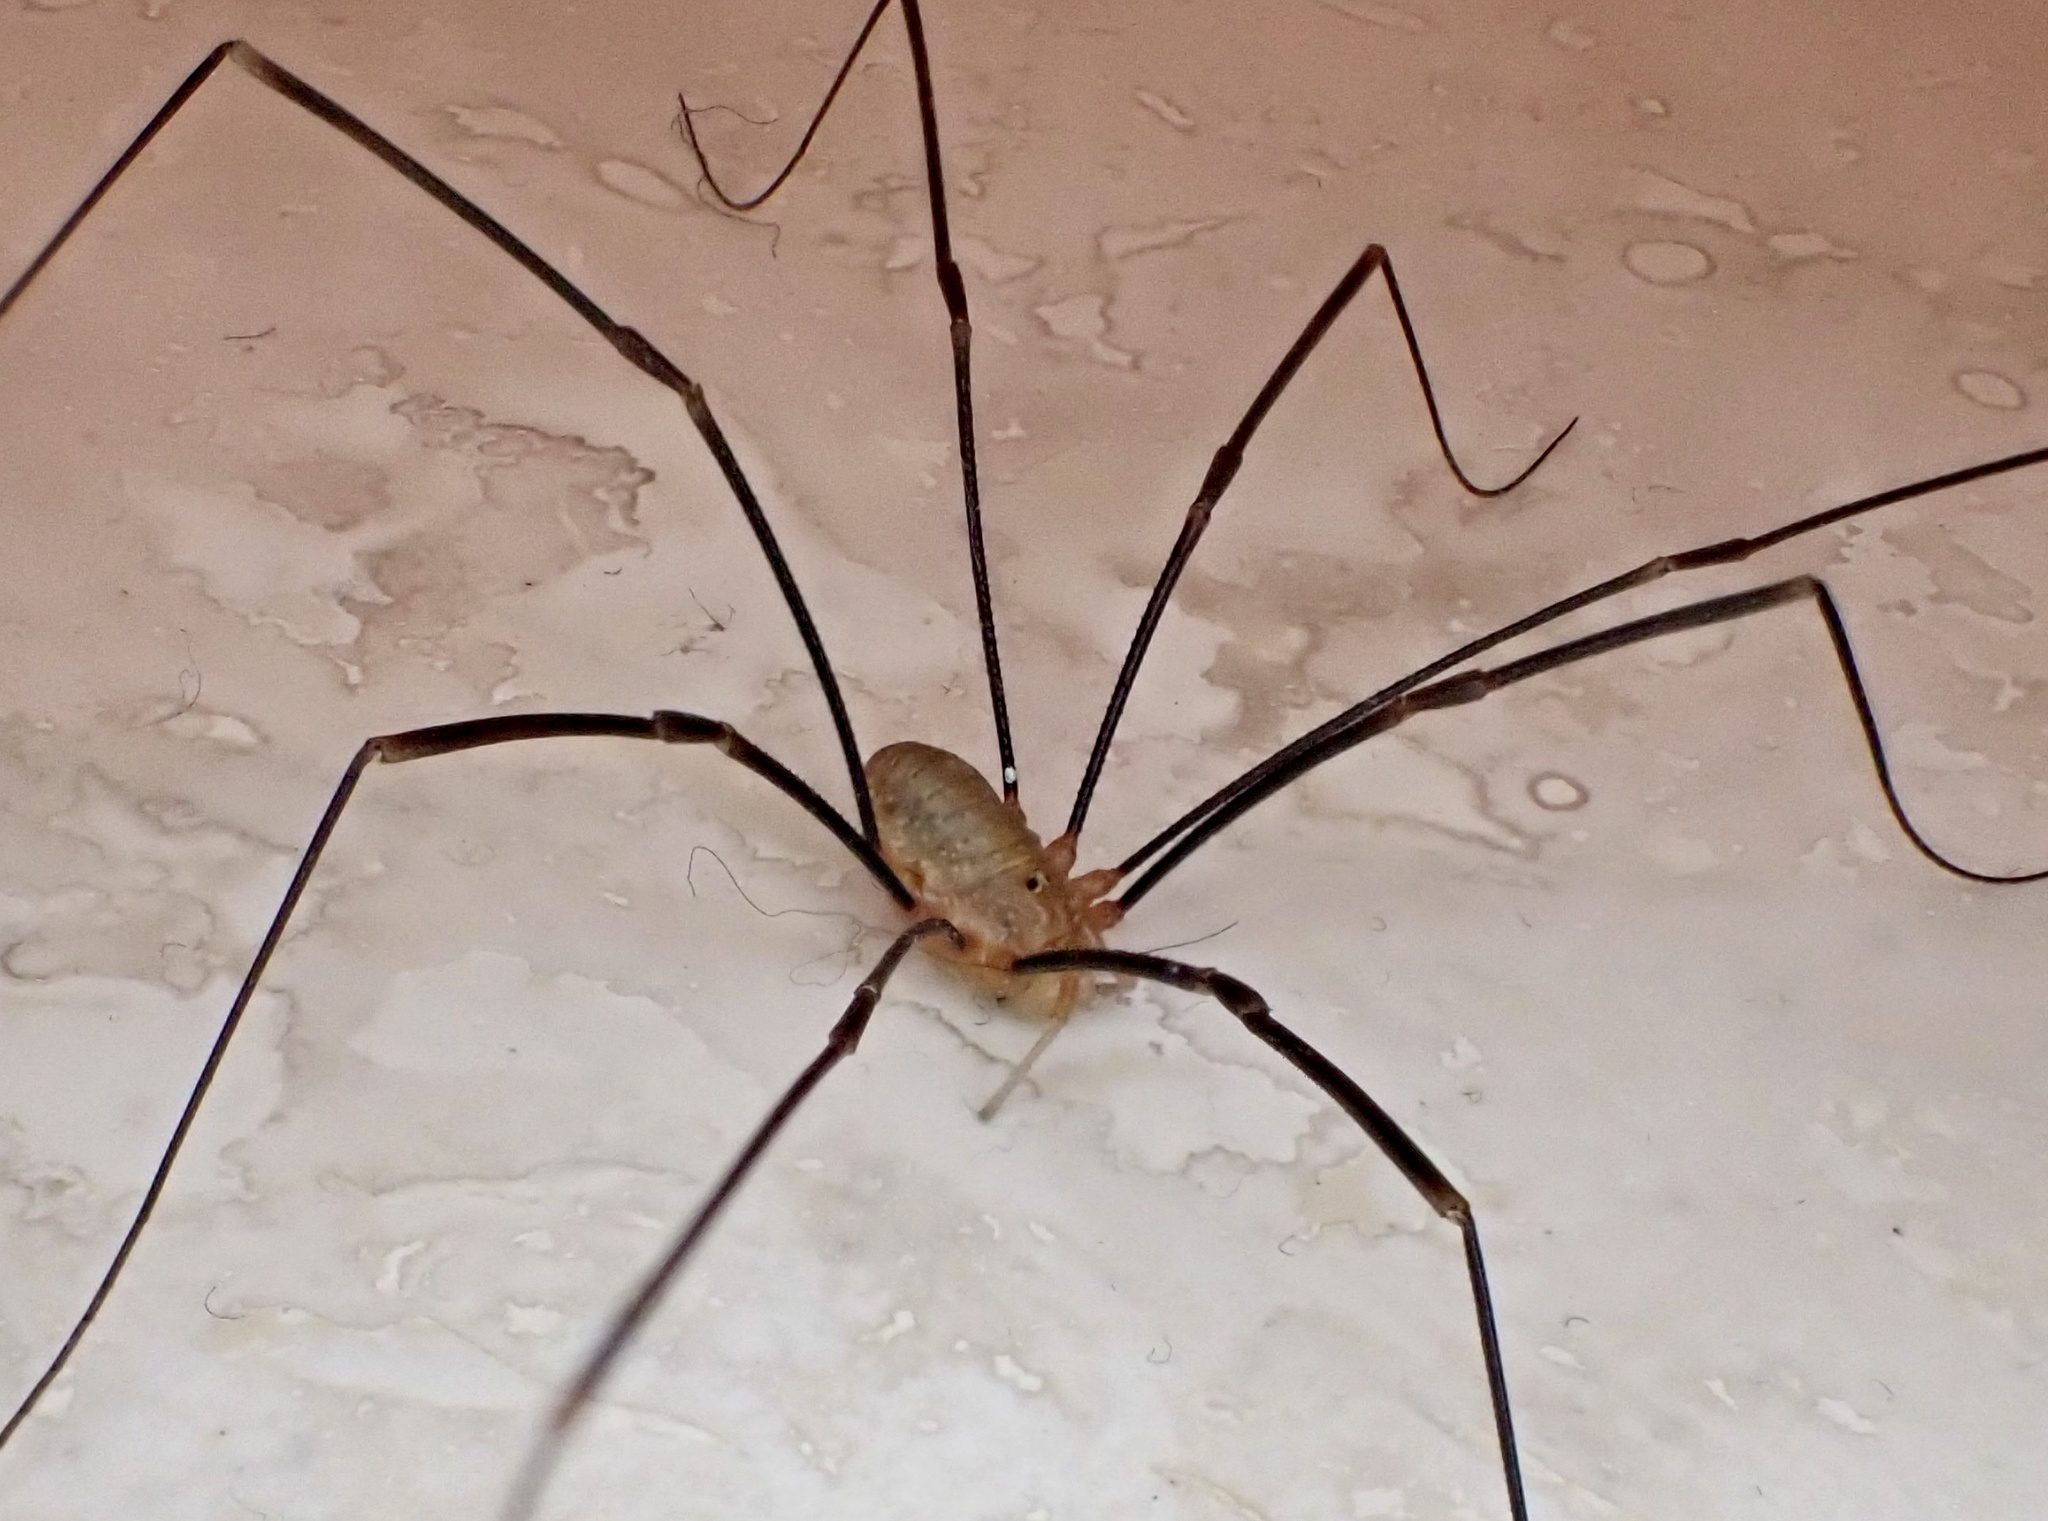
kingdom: Animalia
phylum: Arthropoda
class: Arachnida
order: Opiliones
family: Phalangiidae
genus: Opilio
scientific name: Opilio canestrinii
